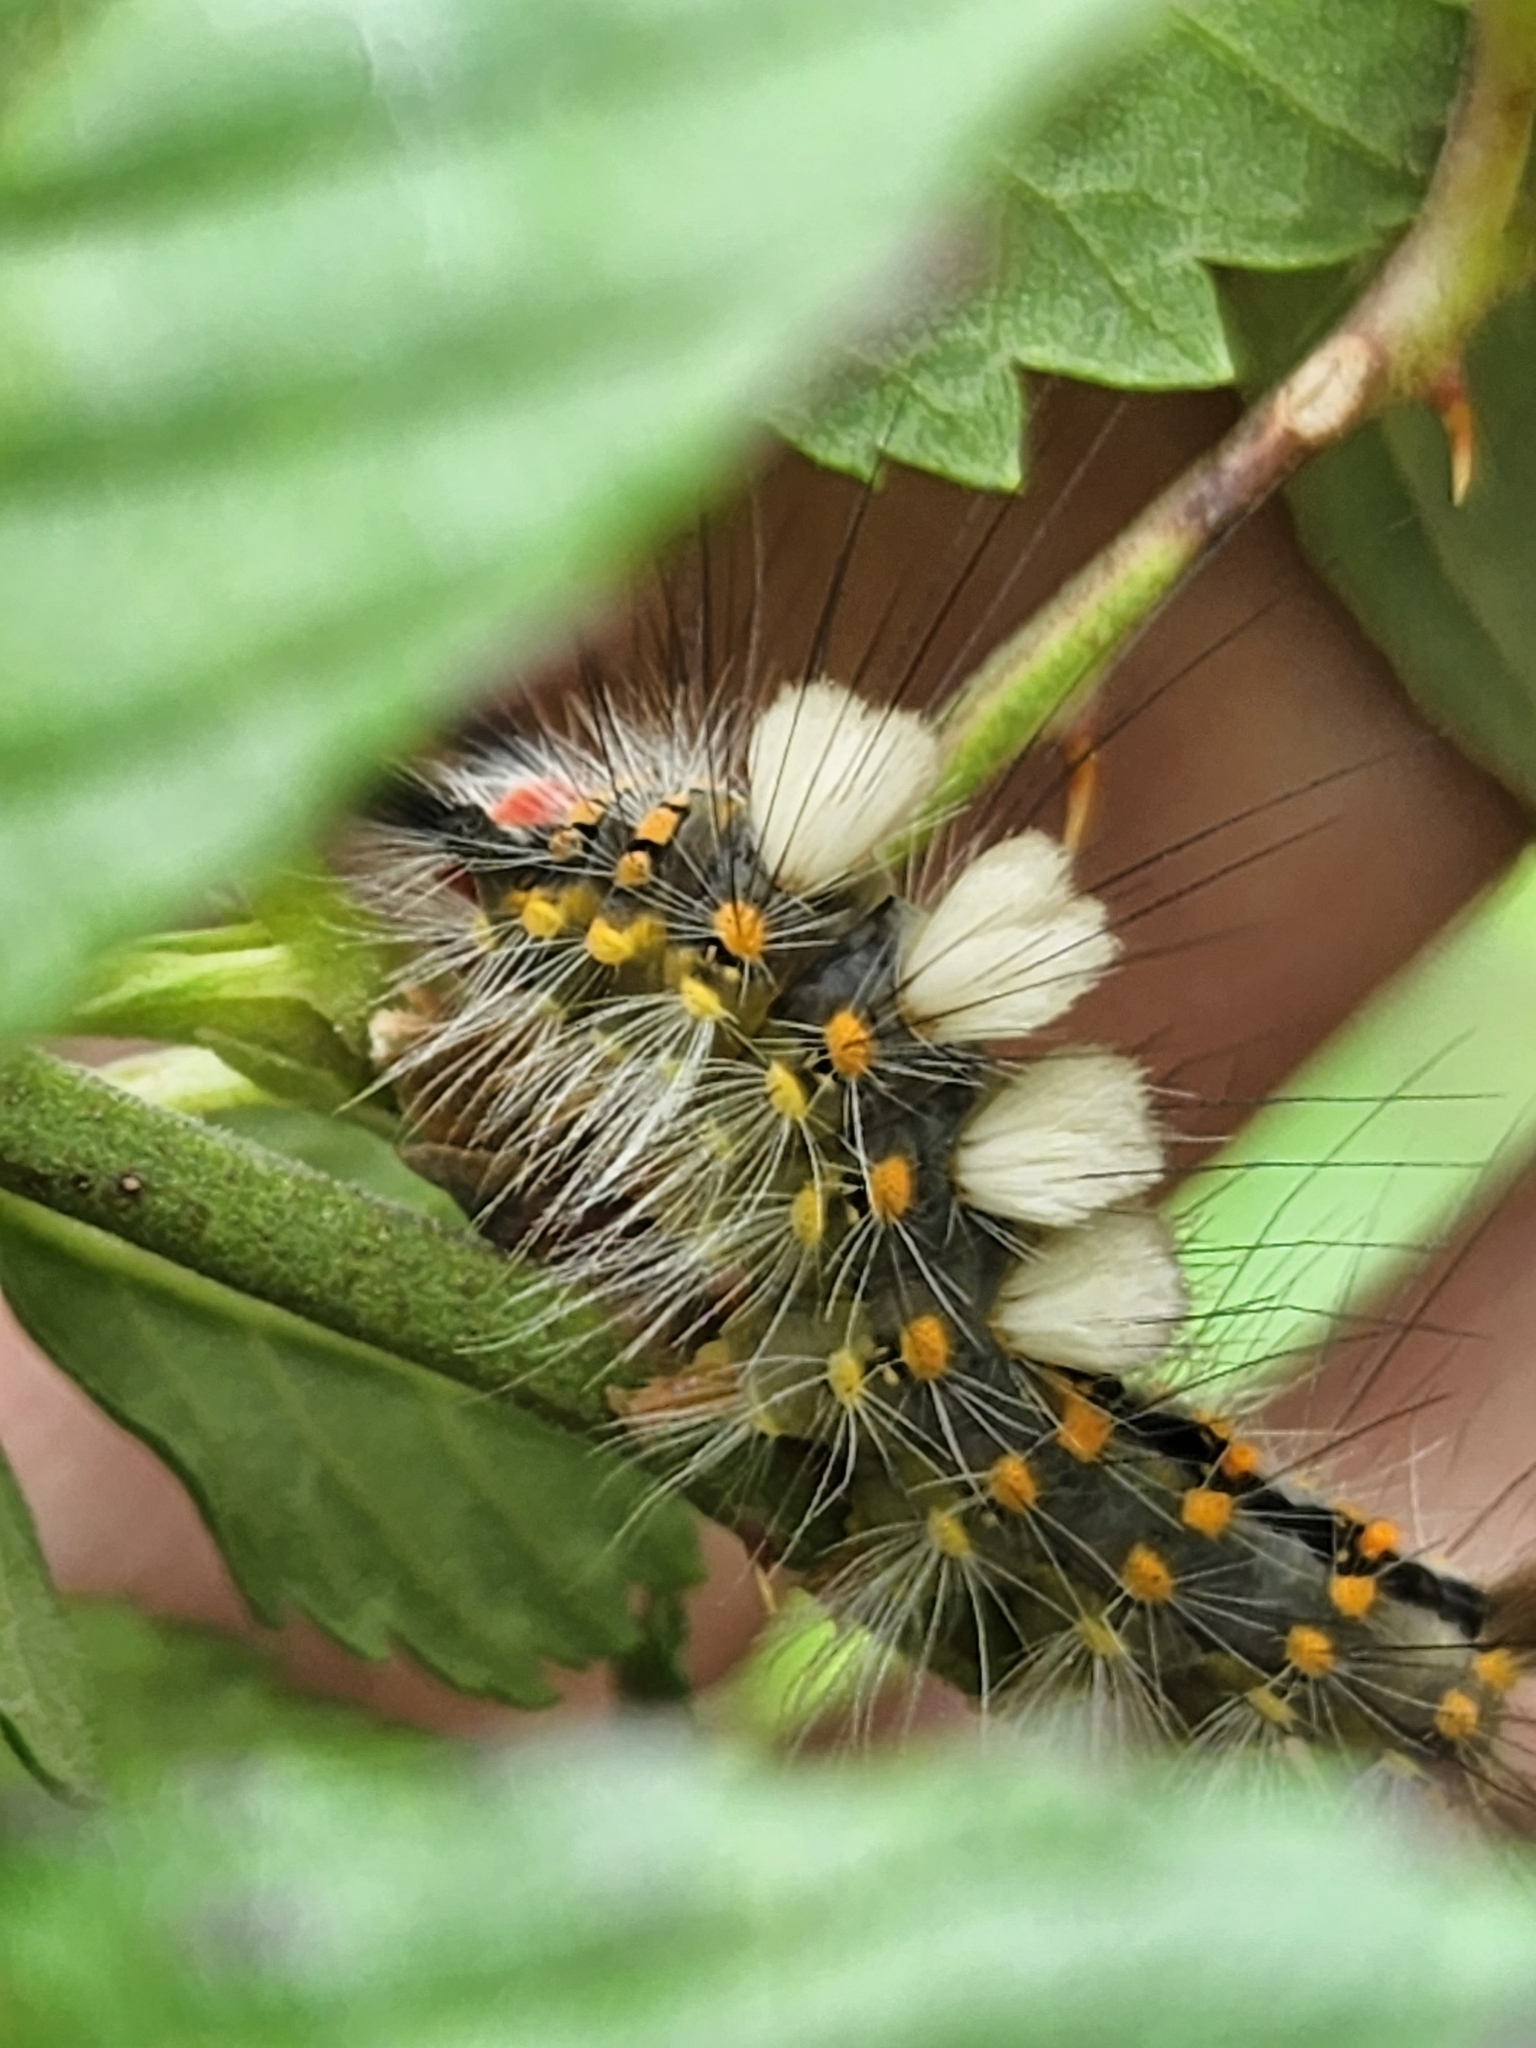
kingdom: Animalia
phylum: Arthropoda
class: Insecta
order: Lepidoptera
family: Erebidae
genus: Orgyia
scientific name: Orgyia detrita
